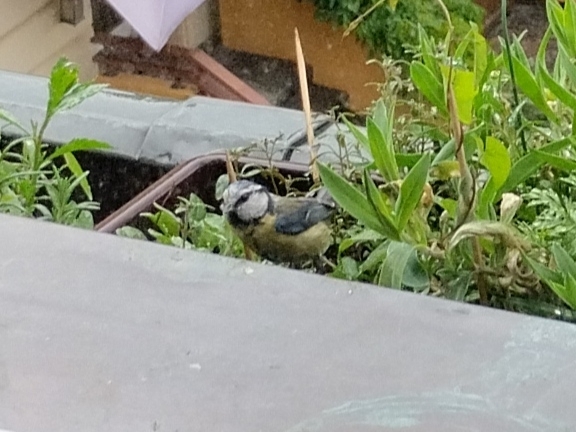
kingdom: Animalia
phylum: Chordata
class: Aves
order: Passeriformes
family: Paridae
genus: Cyanistes
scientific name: Cyanistes caeruleus
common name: Eurasian blue tit
